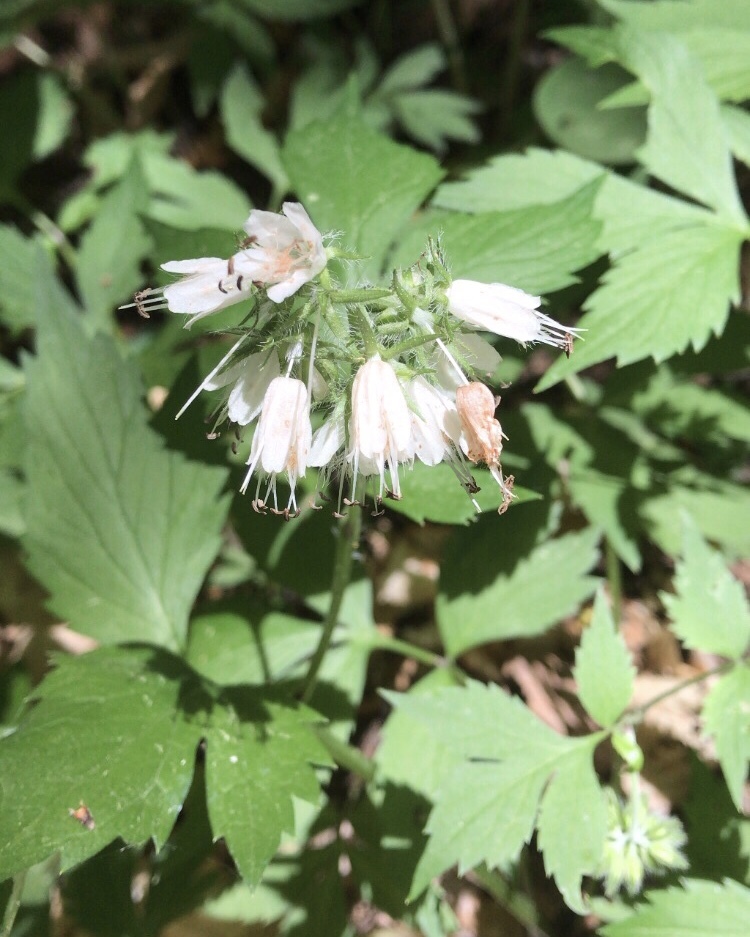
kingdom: Plantae
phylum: Tracheophyta
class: Magnoliopsida
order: Boraginales
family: Hydrophyllaceae
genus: Hydrophyllum
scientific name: Hydrophyllum virginianum
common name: Virginia waterleaf
